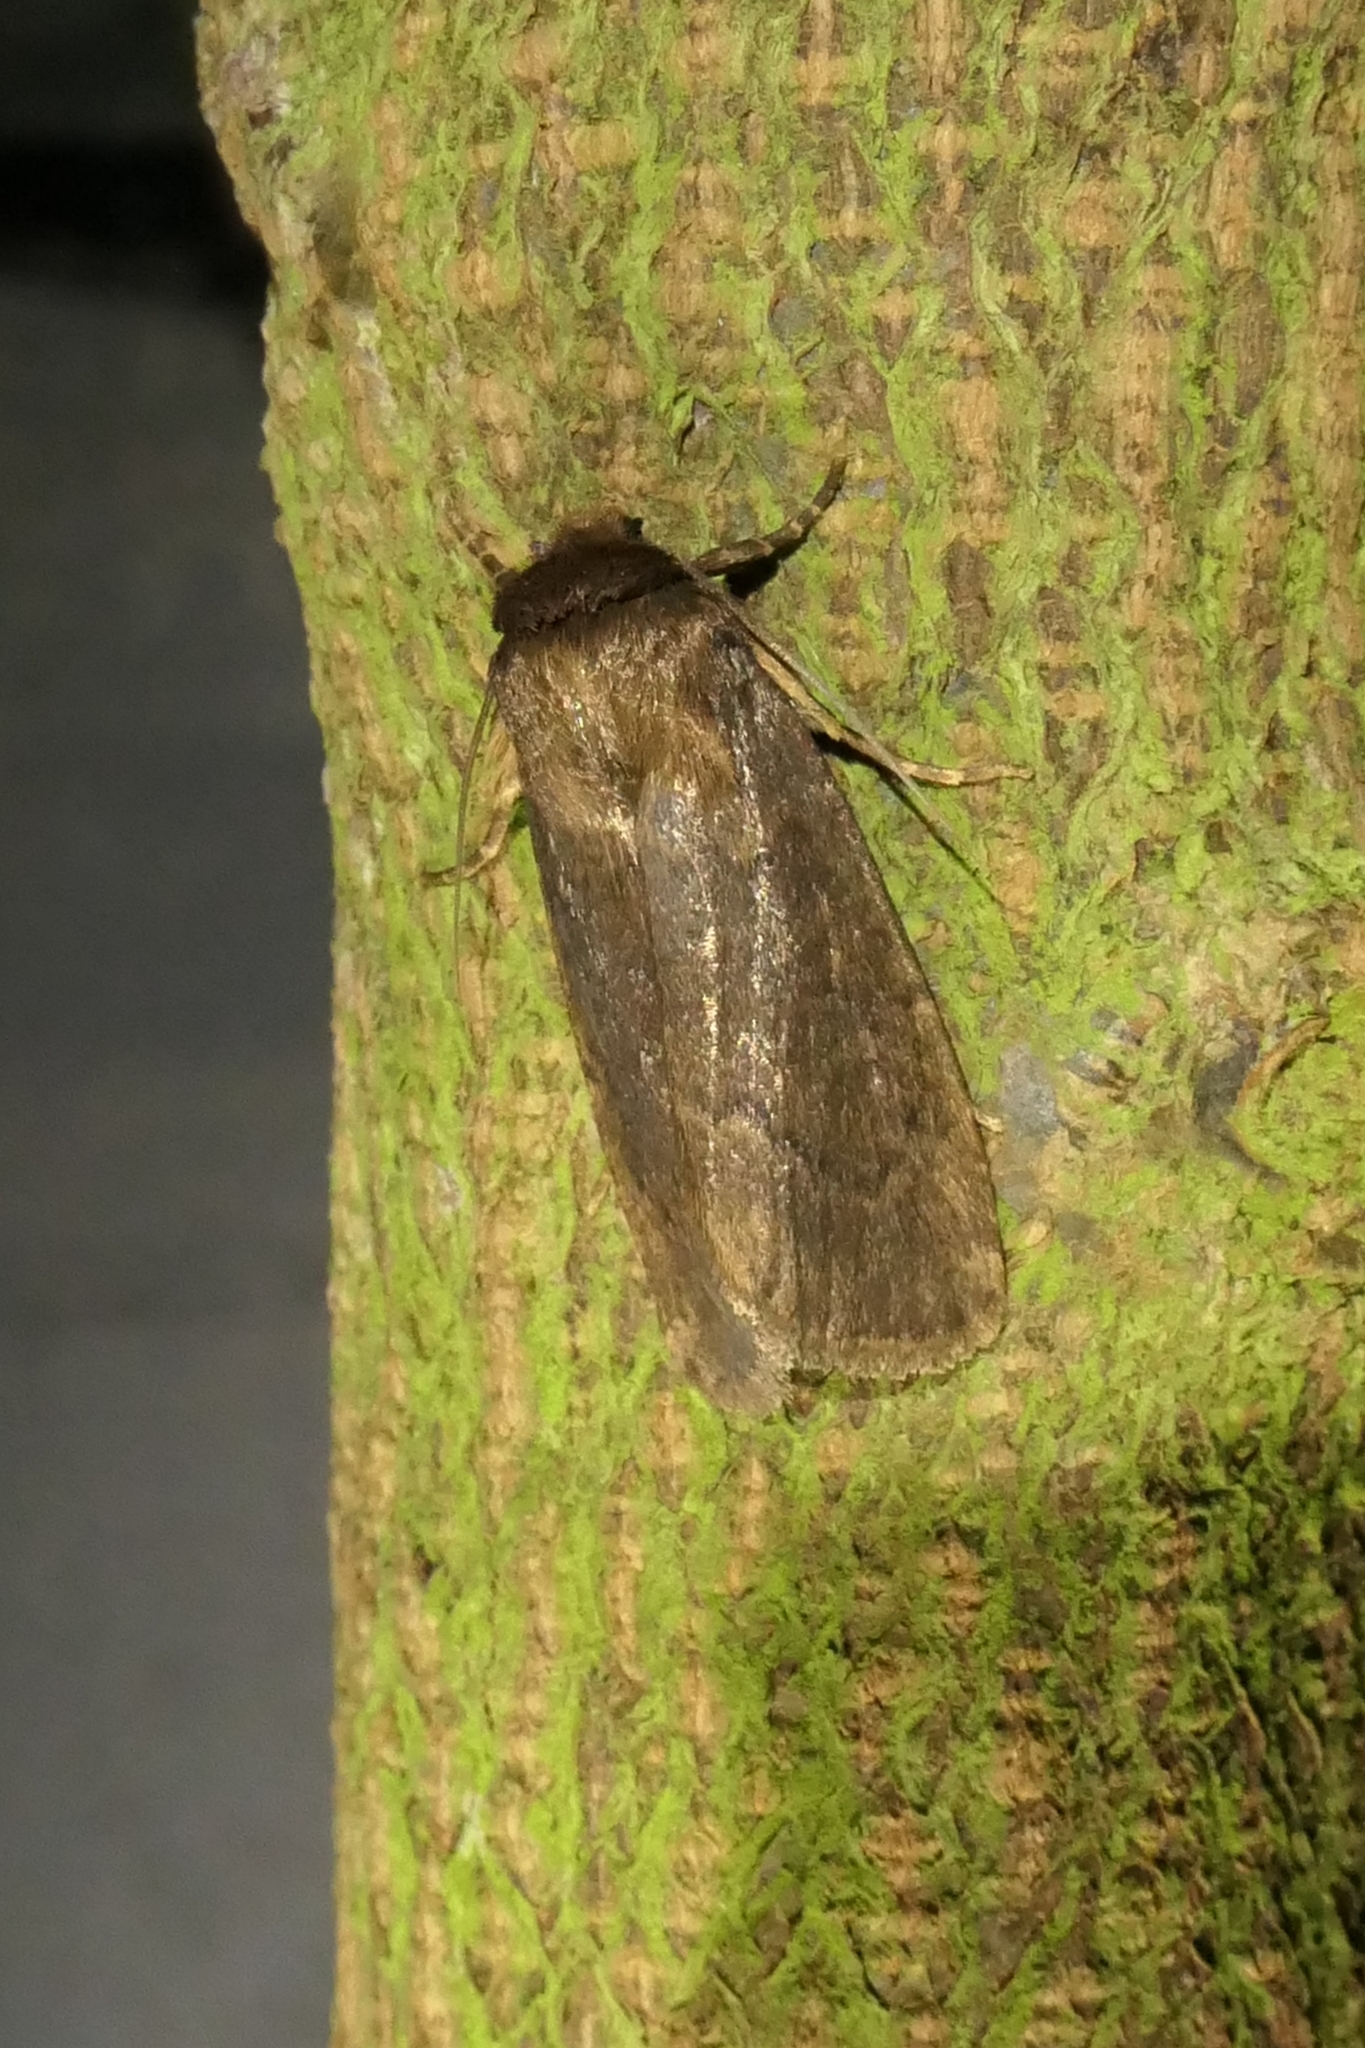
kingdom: Animalia
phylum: Arthropoda
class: Insecta
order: Lepidoptera
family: Noctuidae
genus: Bityla
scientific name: Bityla defigurata
